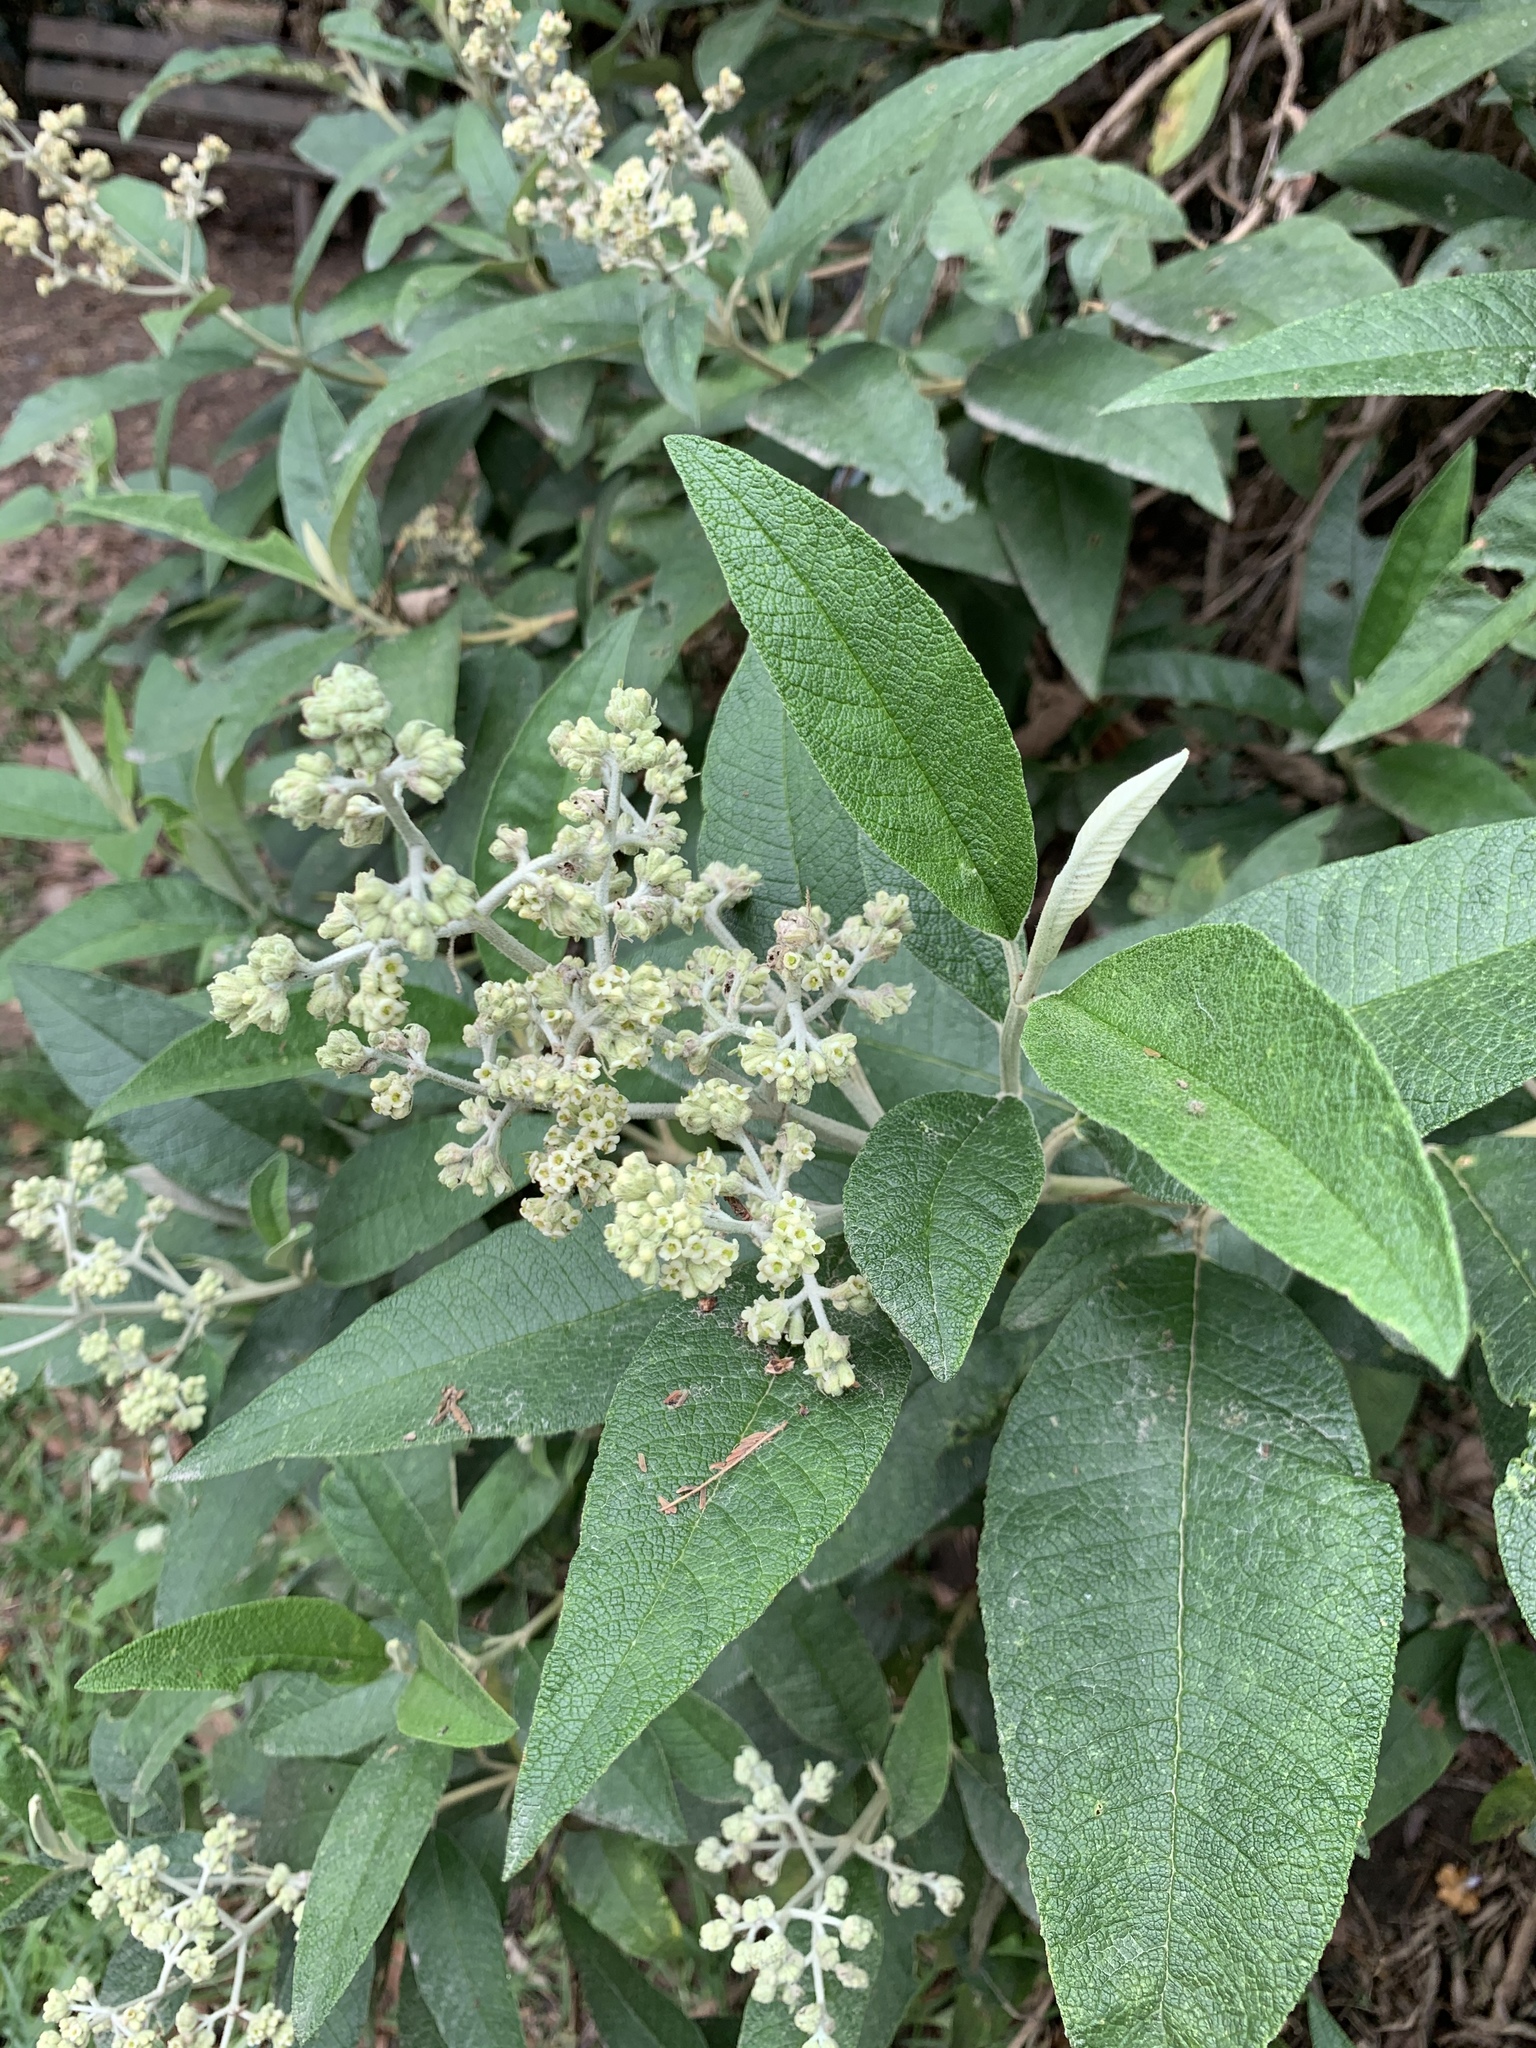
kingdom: Plantae
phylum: Tracheophyta
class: Magnoliopsida
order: Lamiales
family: Scrophulariaceae
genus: Buddleja
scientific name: Buddleja bullata
